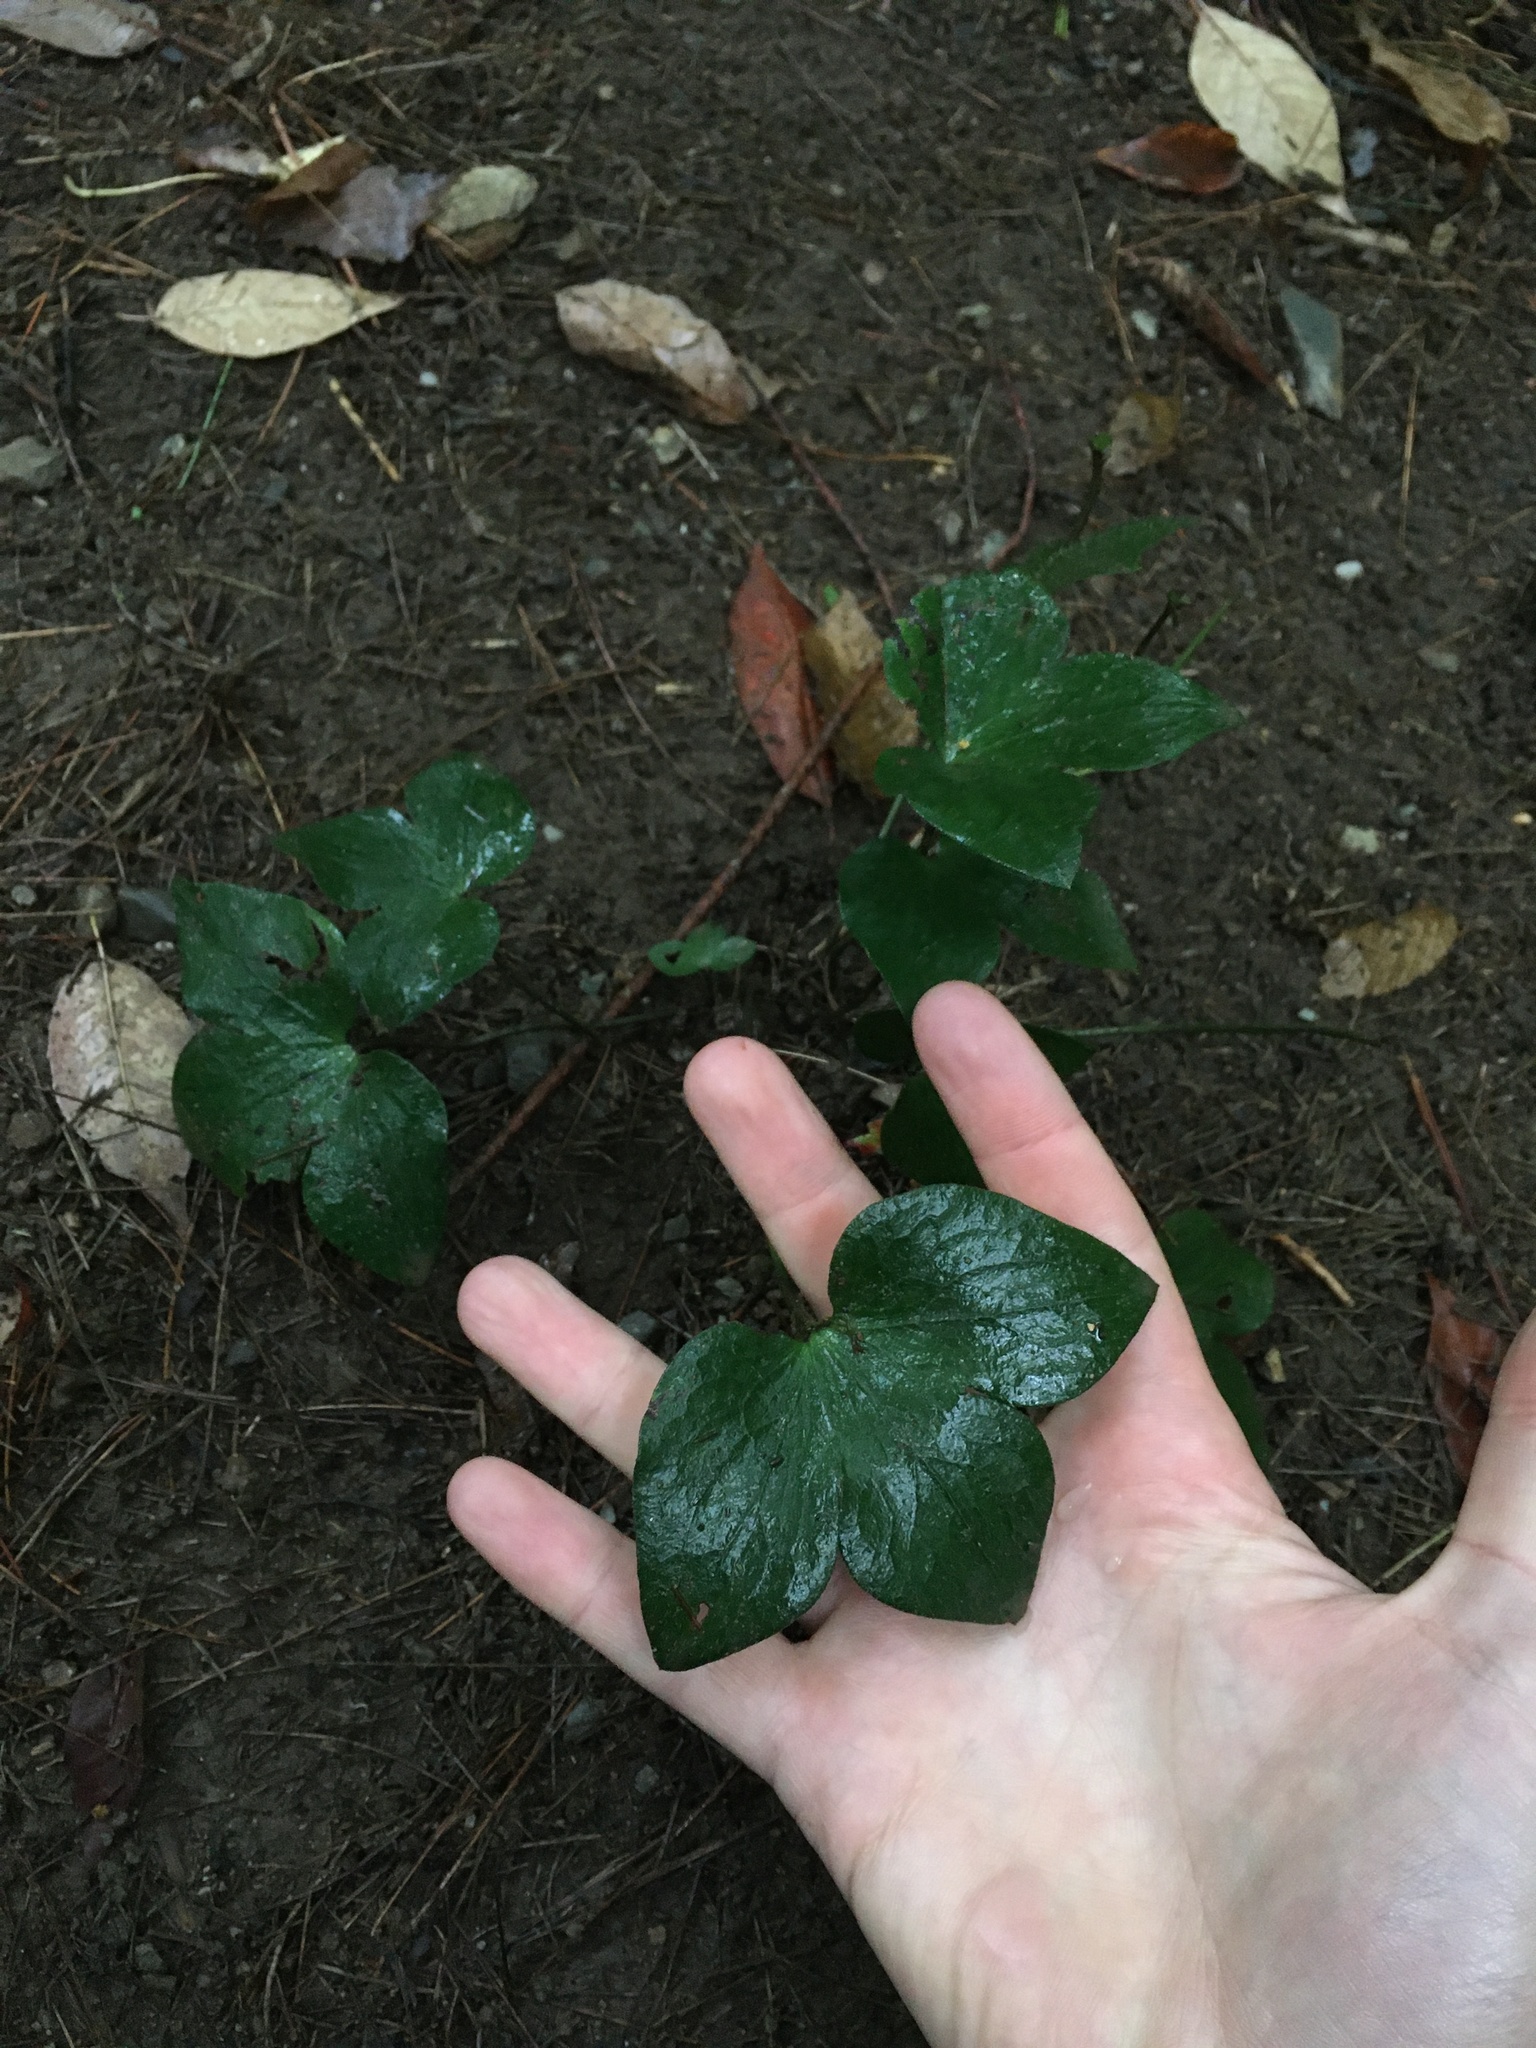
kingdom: Plantae
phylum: Tracheophyta
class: Magnoliopsida
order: Ranunculales
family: Ranunculaceae
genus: Hepatica
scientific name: Hepatica acutiloba
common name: Sharp-lobed hepatica
